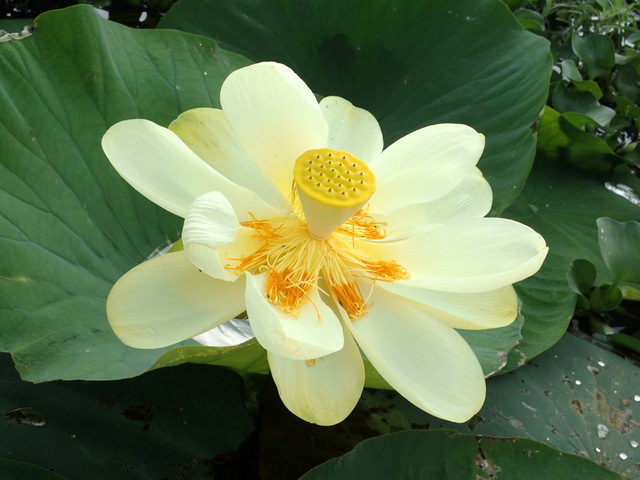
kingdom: Plantae
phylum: Tracheophyta
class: Magnoliopsida
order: Proteales
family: Nelumbonaceae
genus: Nelumbo
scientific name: Nelumbo lutea
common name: American lotus
